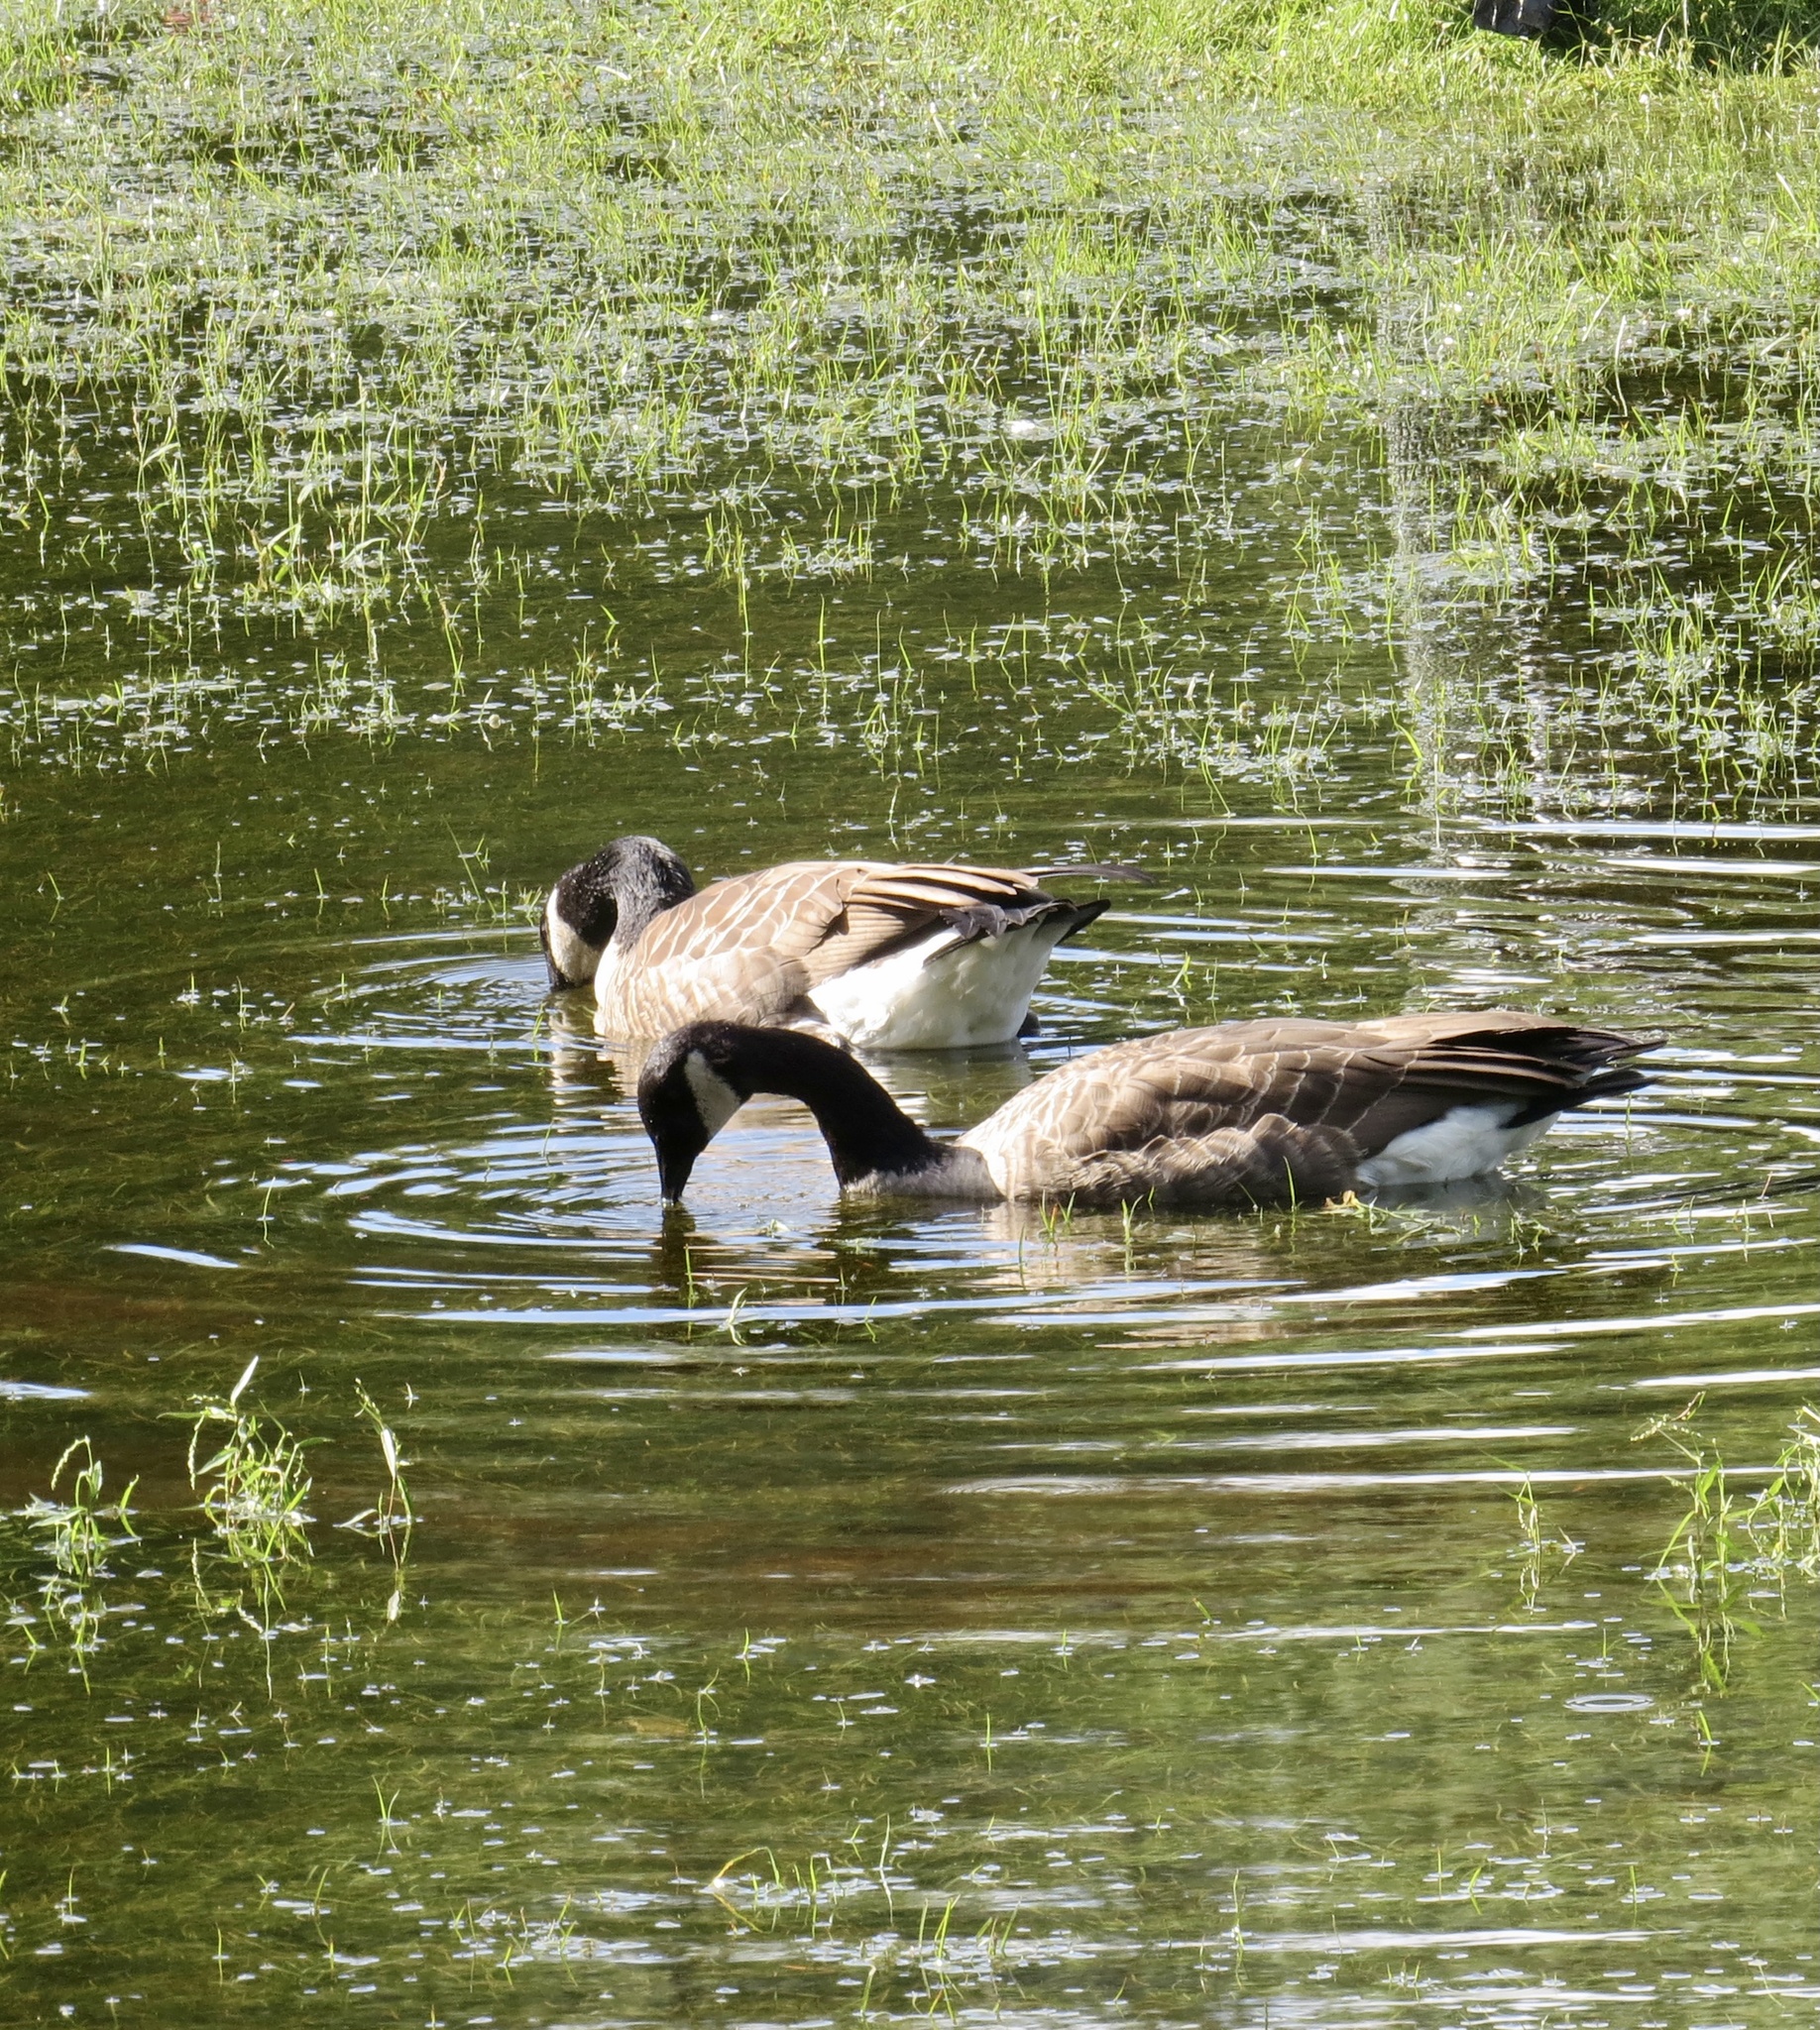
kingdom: Animalia
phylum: Chordata
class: Aves
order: Anseriformes
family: Anatidae
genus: Branta
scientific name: Branta canadensis
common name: Canada goose
